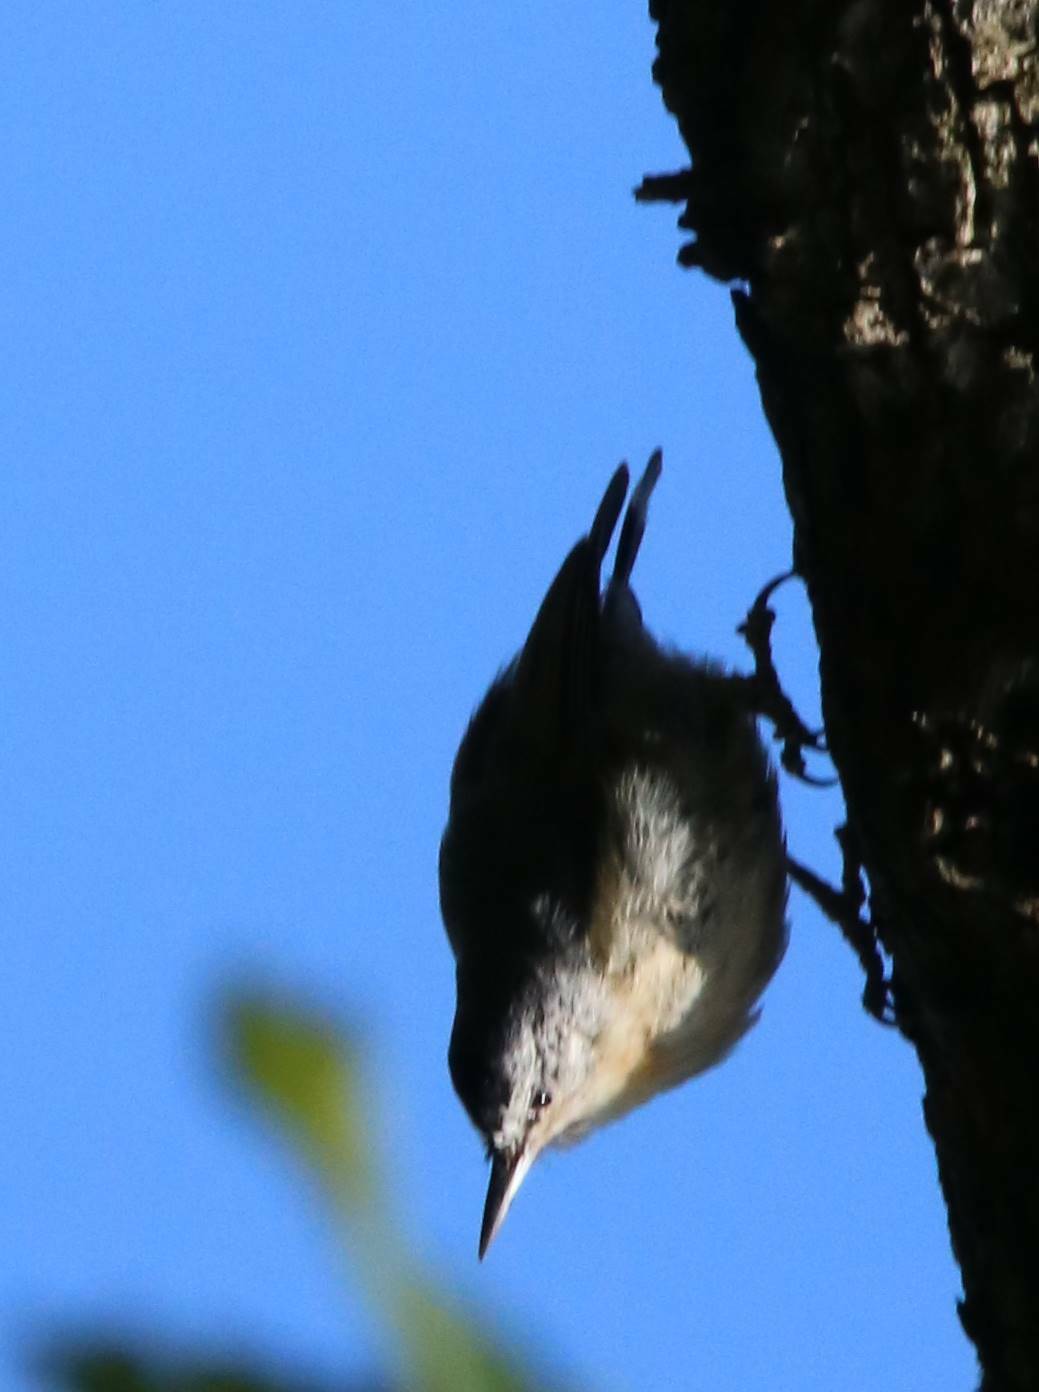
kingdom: Animalia
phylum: Chordata
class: Aves
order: Passeriformes
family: Sittidae
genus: Sitta
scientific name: Sitta ledanti
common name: Algerian nuthatch
